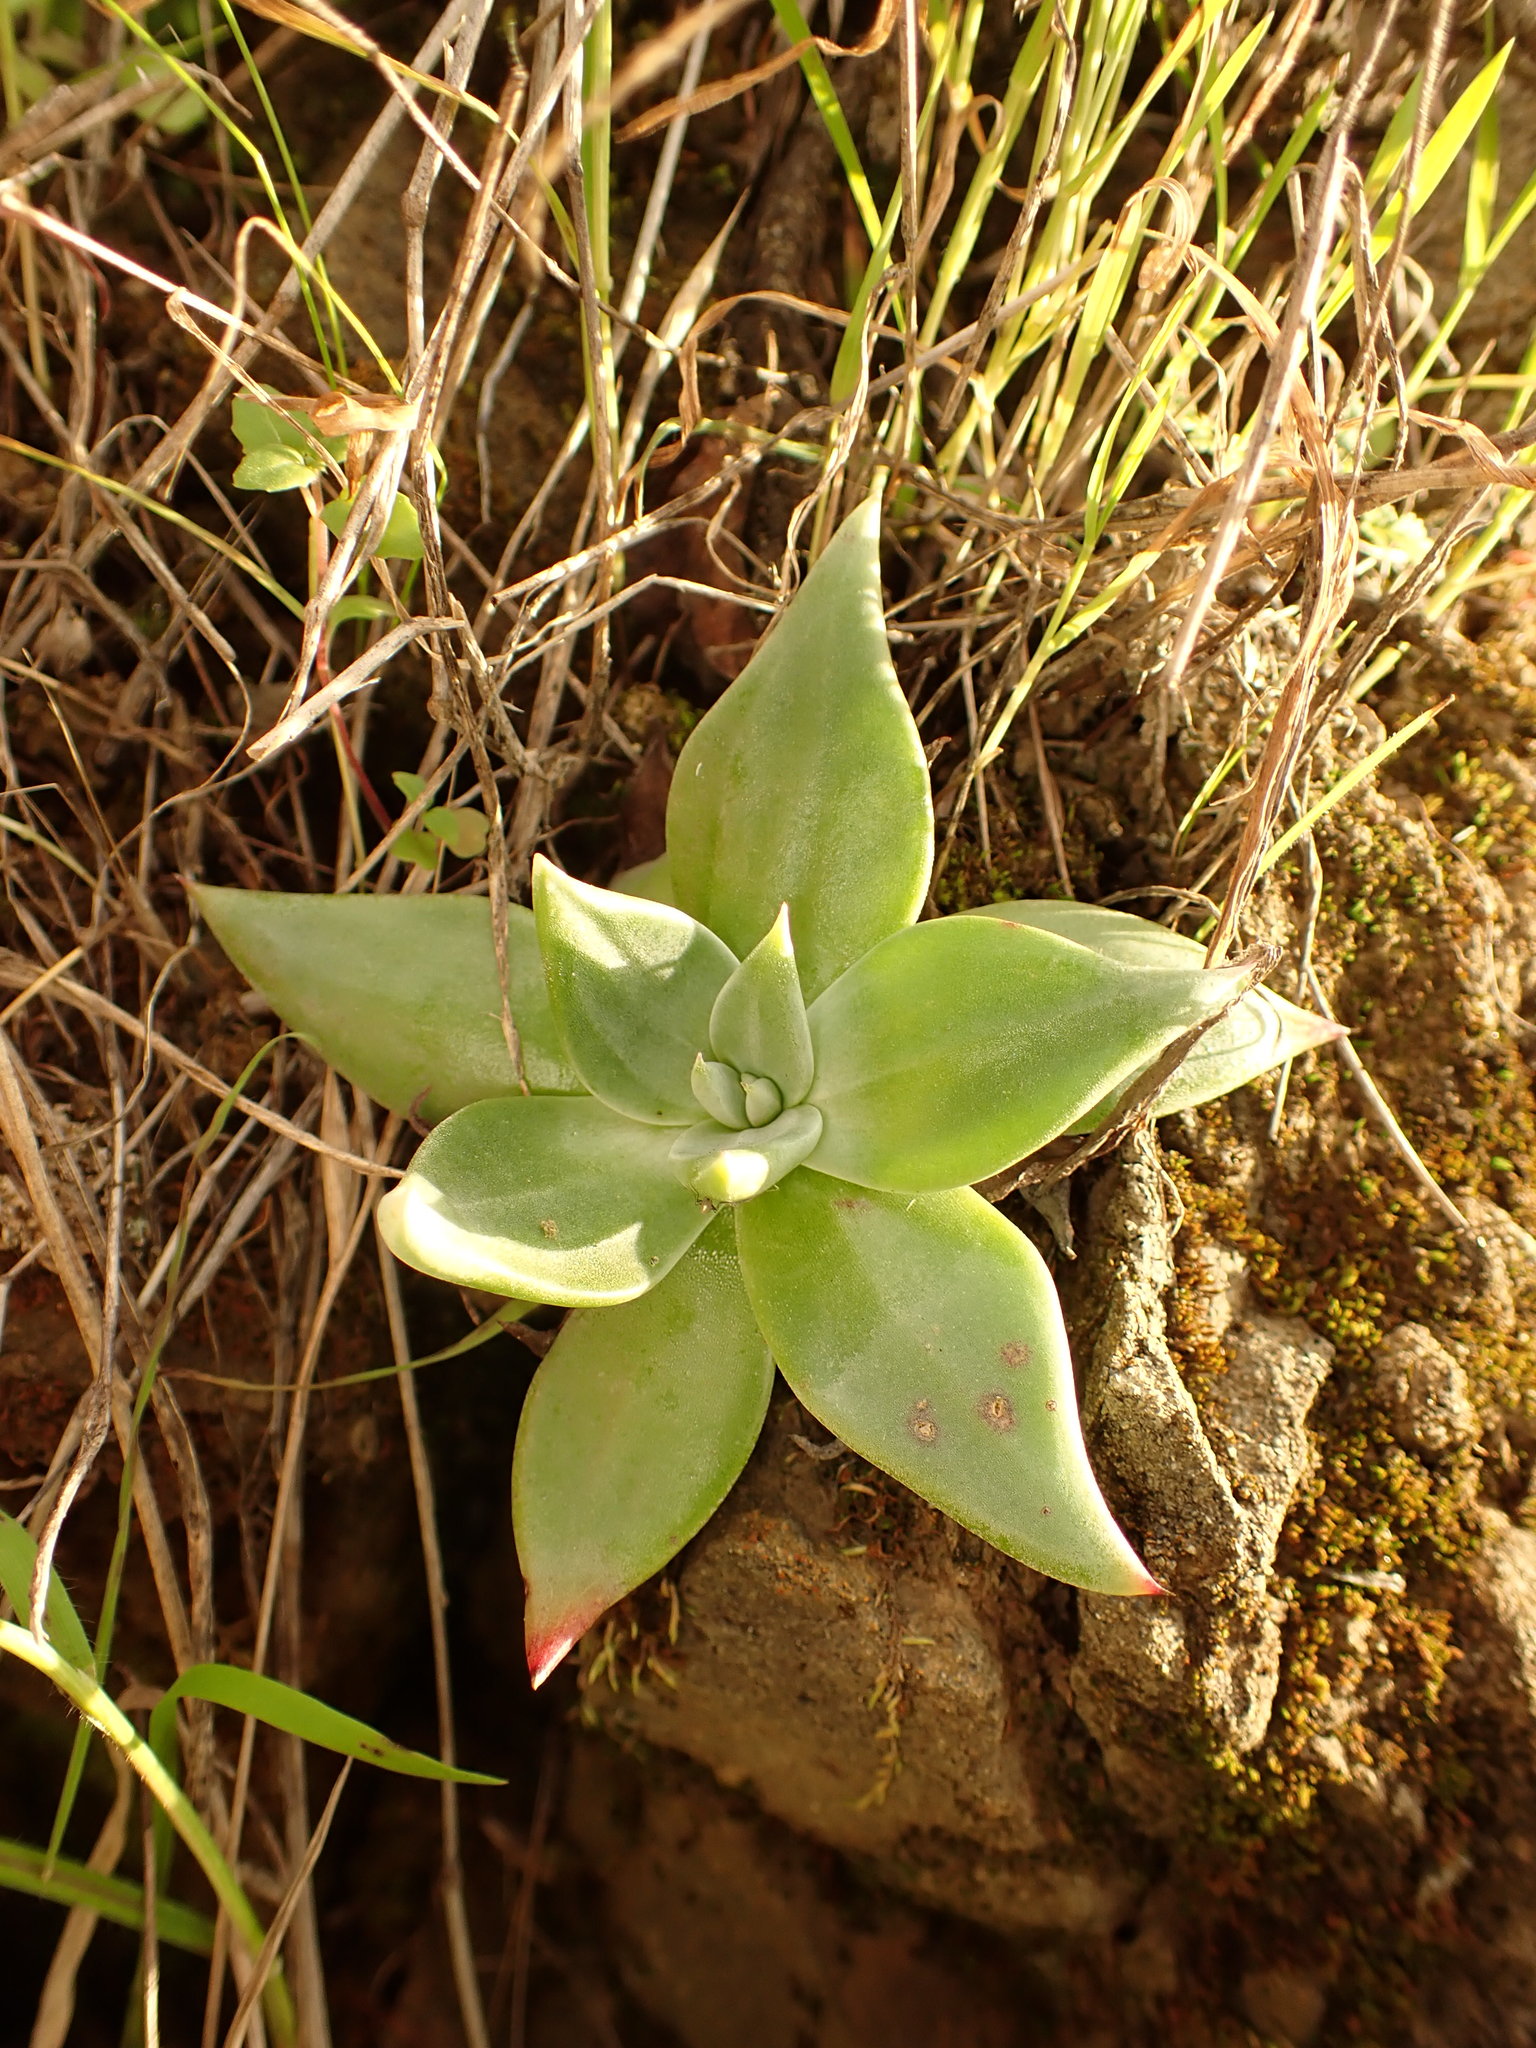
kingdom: Plantae
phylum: Tracheophyta
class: Magnoliopsida
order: Saxifragales
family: Crassulaceae
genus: Dudleya
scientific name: Dudleya cymosa
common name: Canyon dudleya
